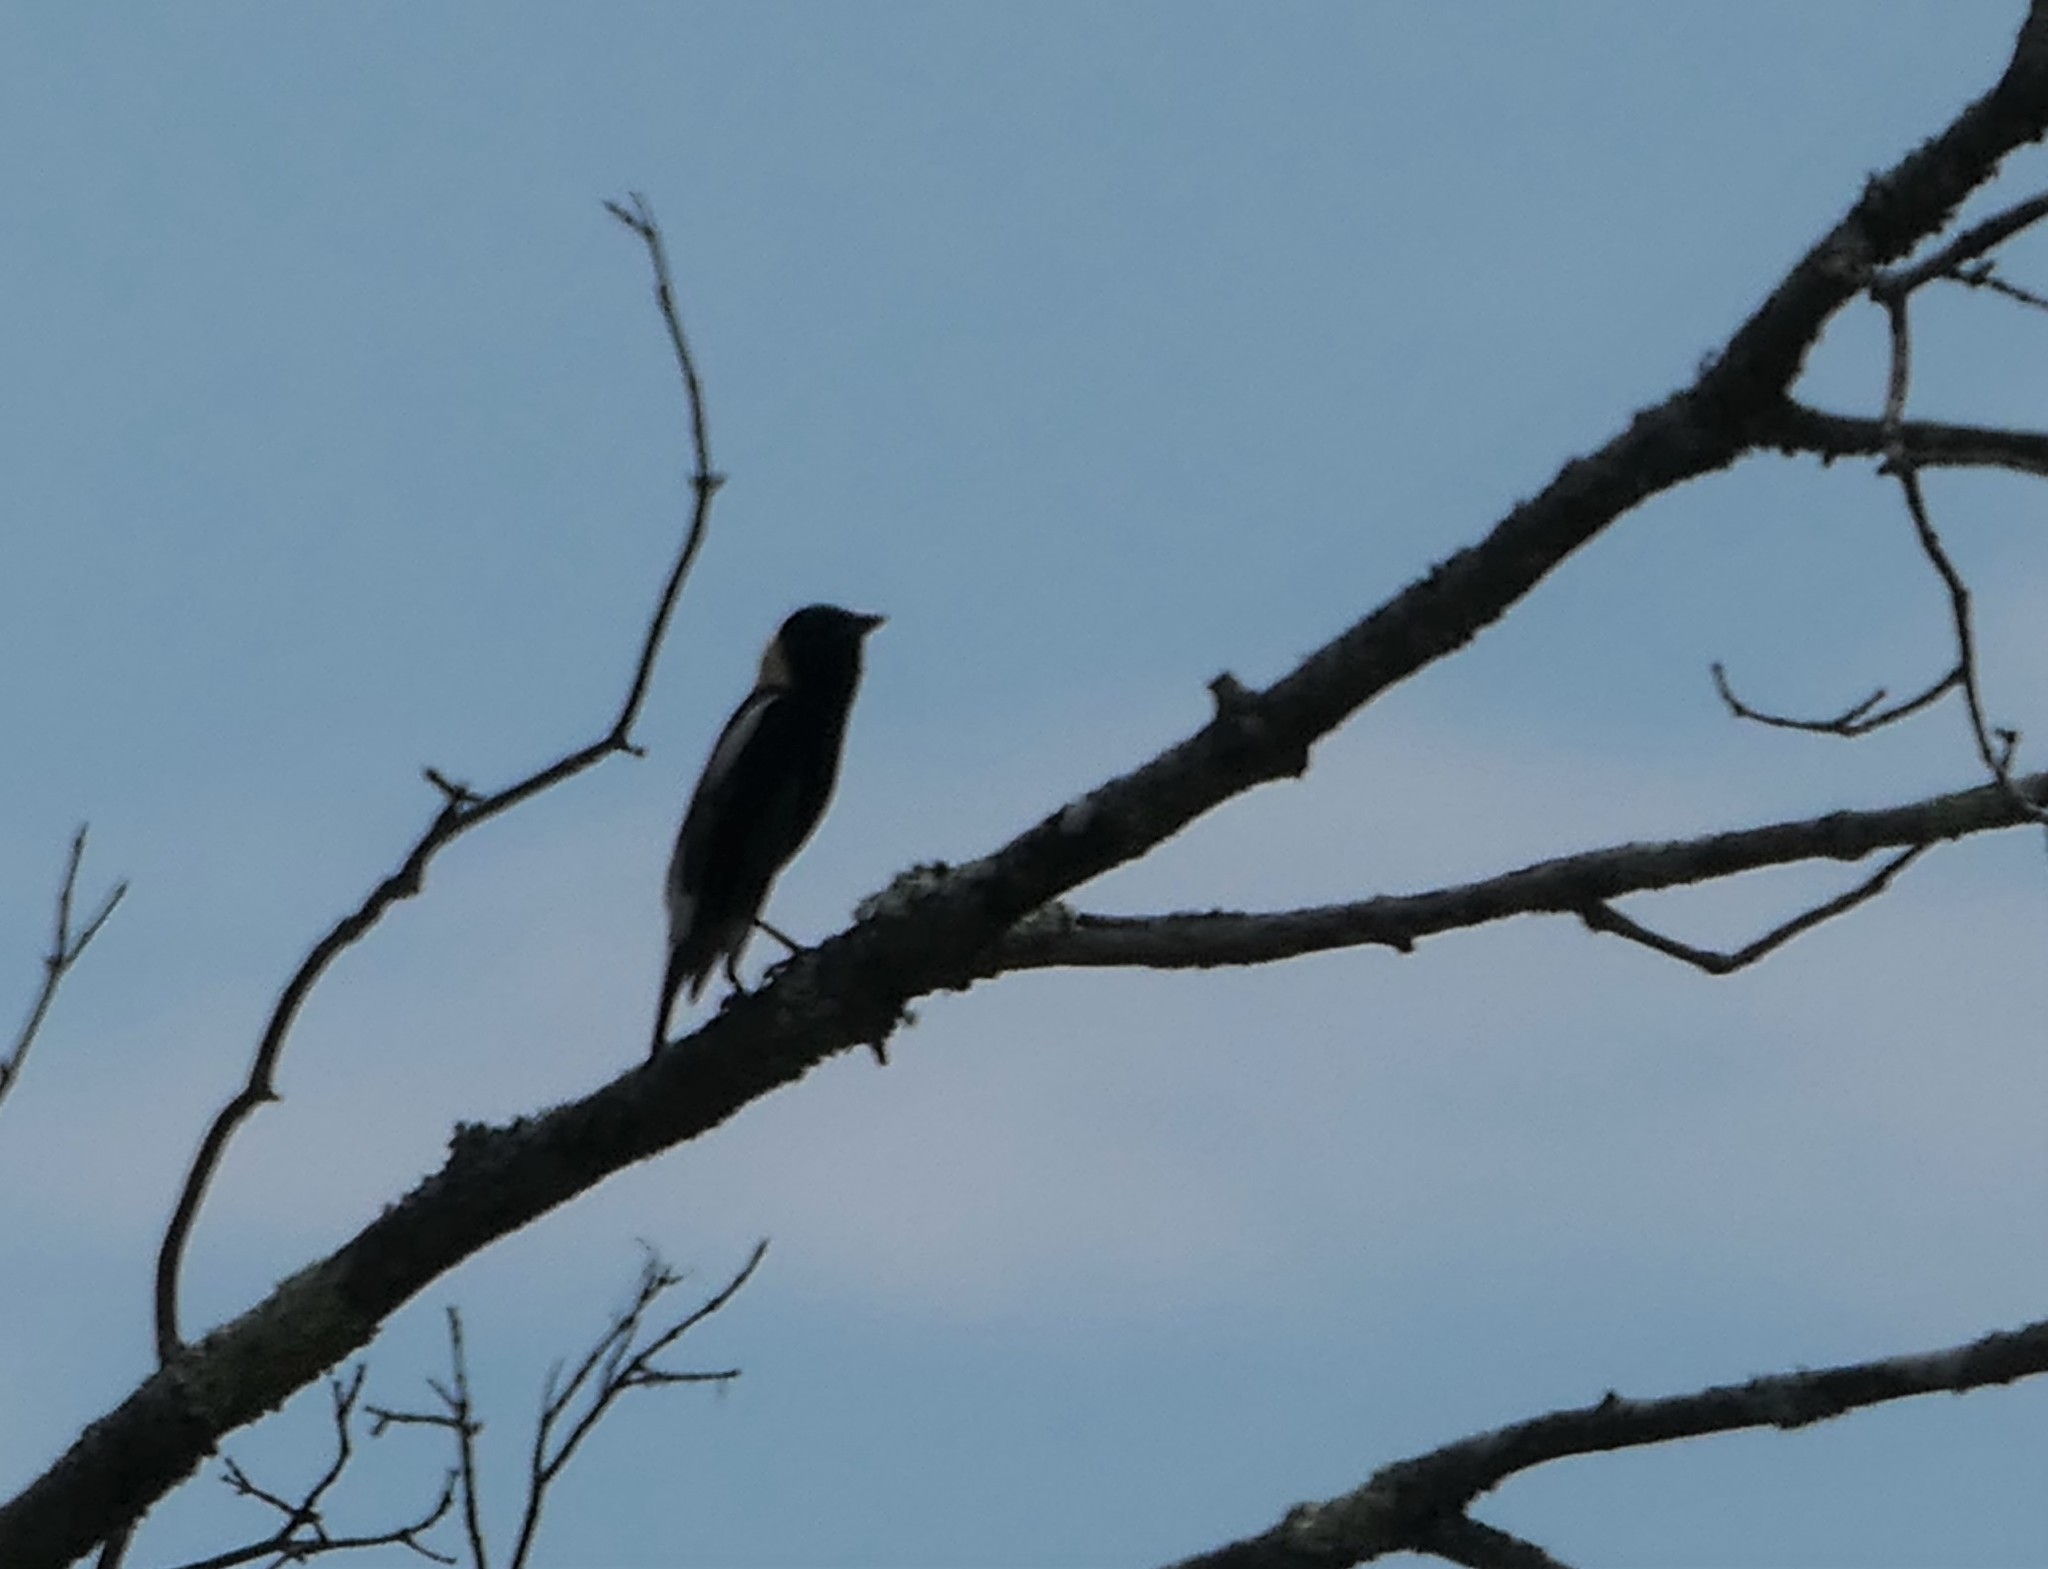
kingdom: Animalia
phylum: Chordata
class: Aves
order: Passeriformes
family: Icteridae
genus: Dolichonyx
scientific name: Dolichonyx oryzivorus
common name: Bobolink
